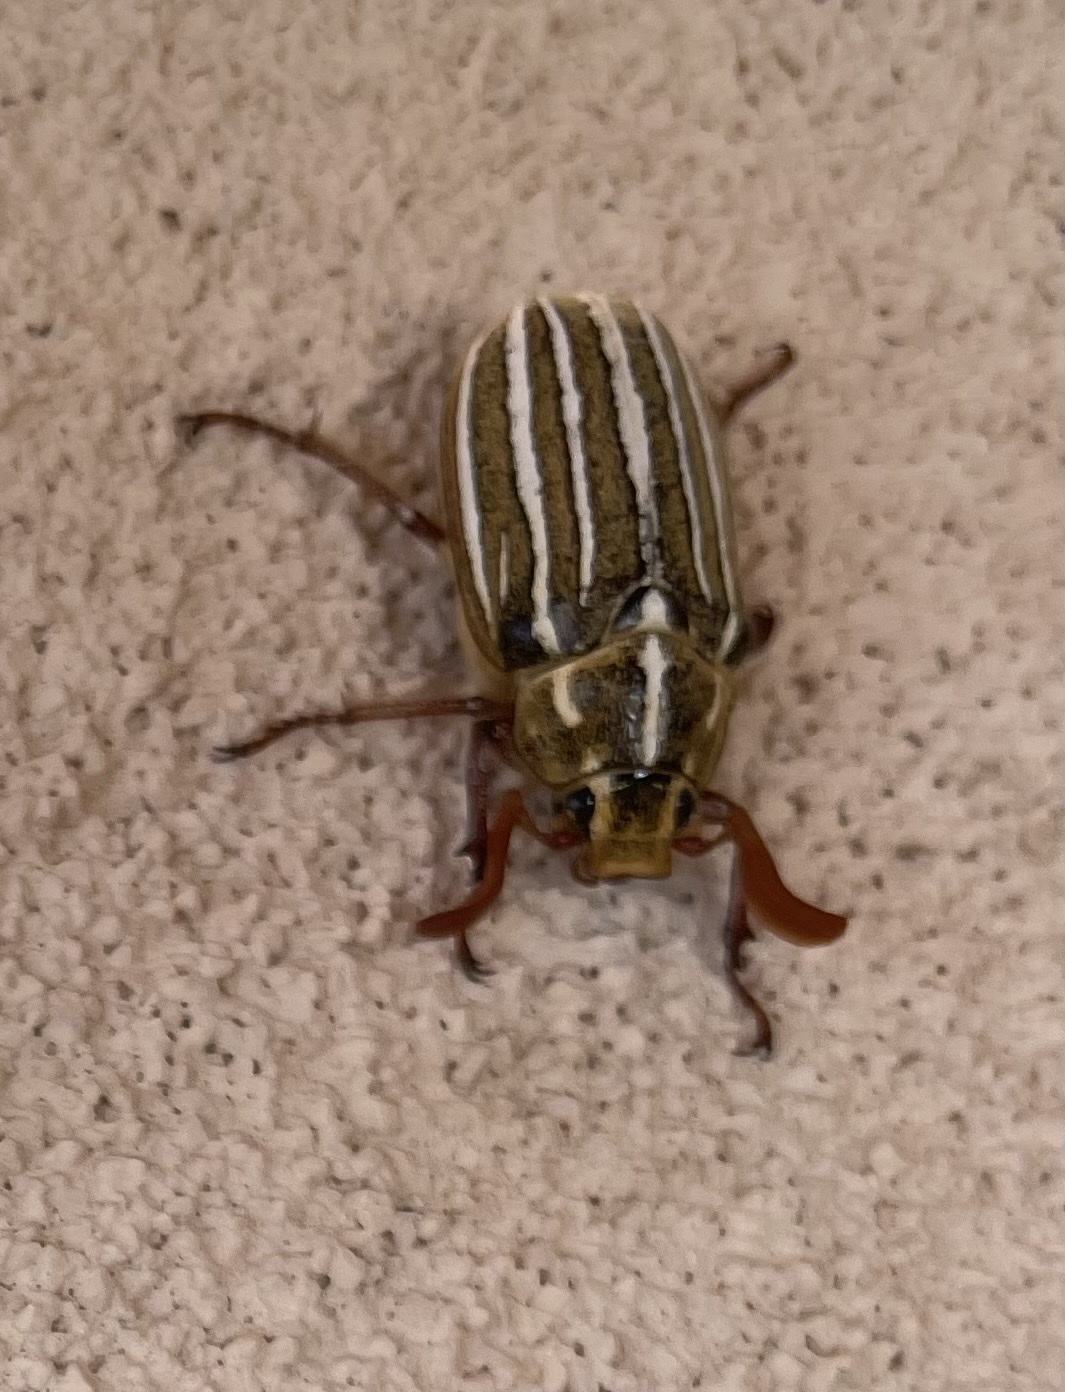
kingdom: Animalia
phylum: Arthropoda
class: Insecta
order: Coleoptera
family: Scarabaeidae
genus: Polyphylla
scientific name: Polyphylla decemlineata
